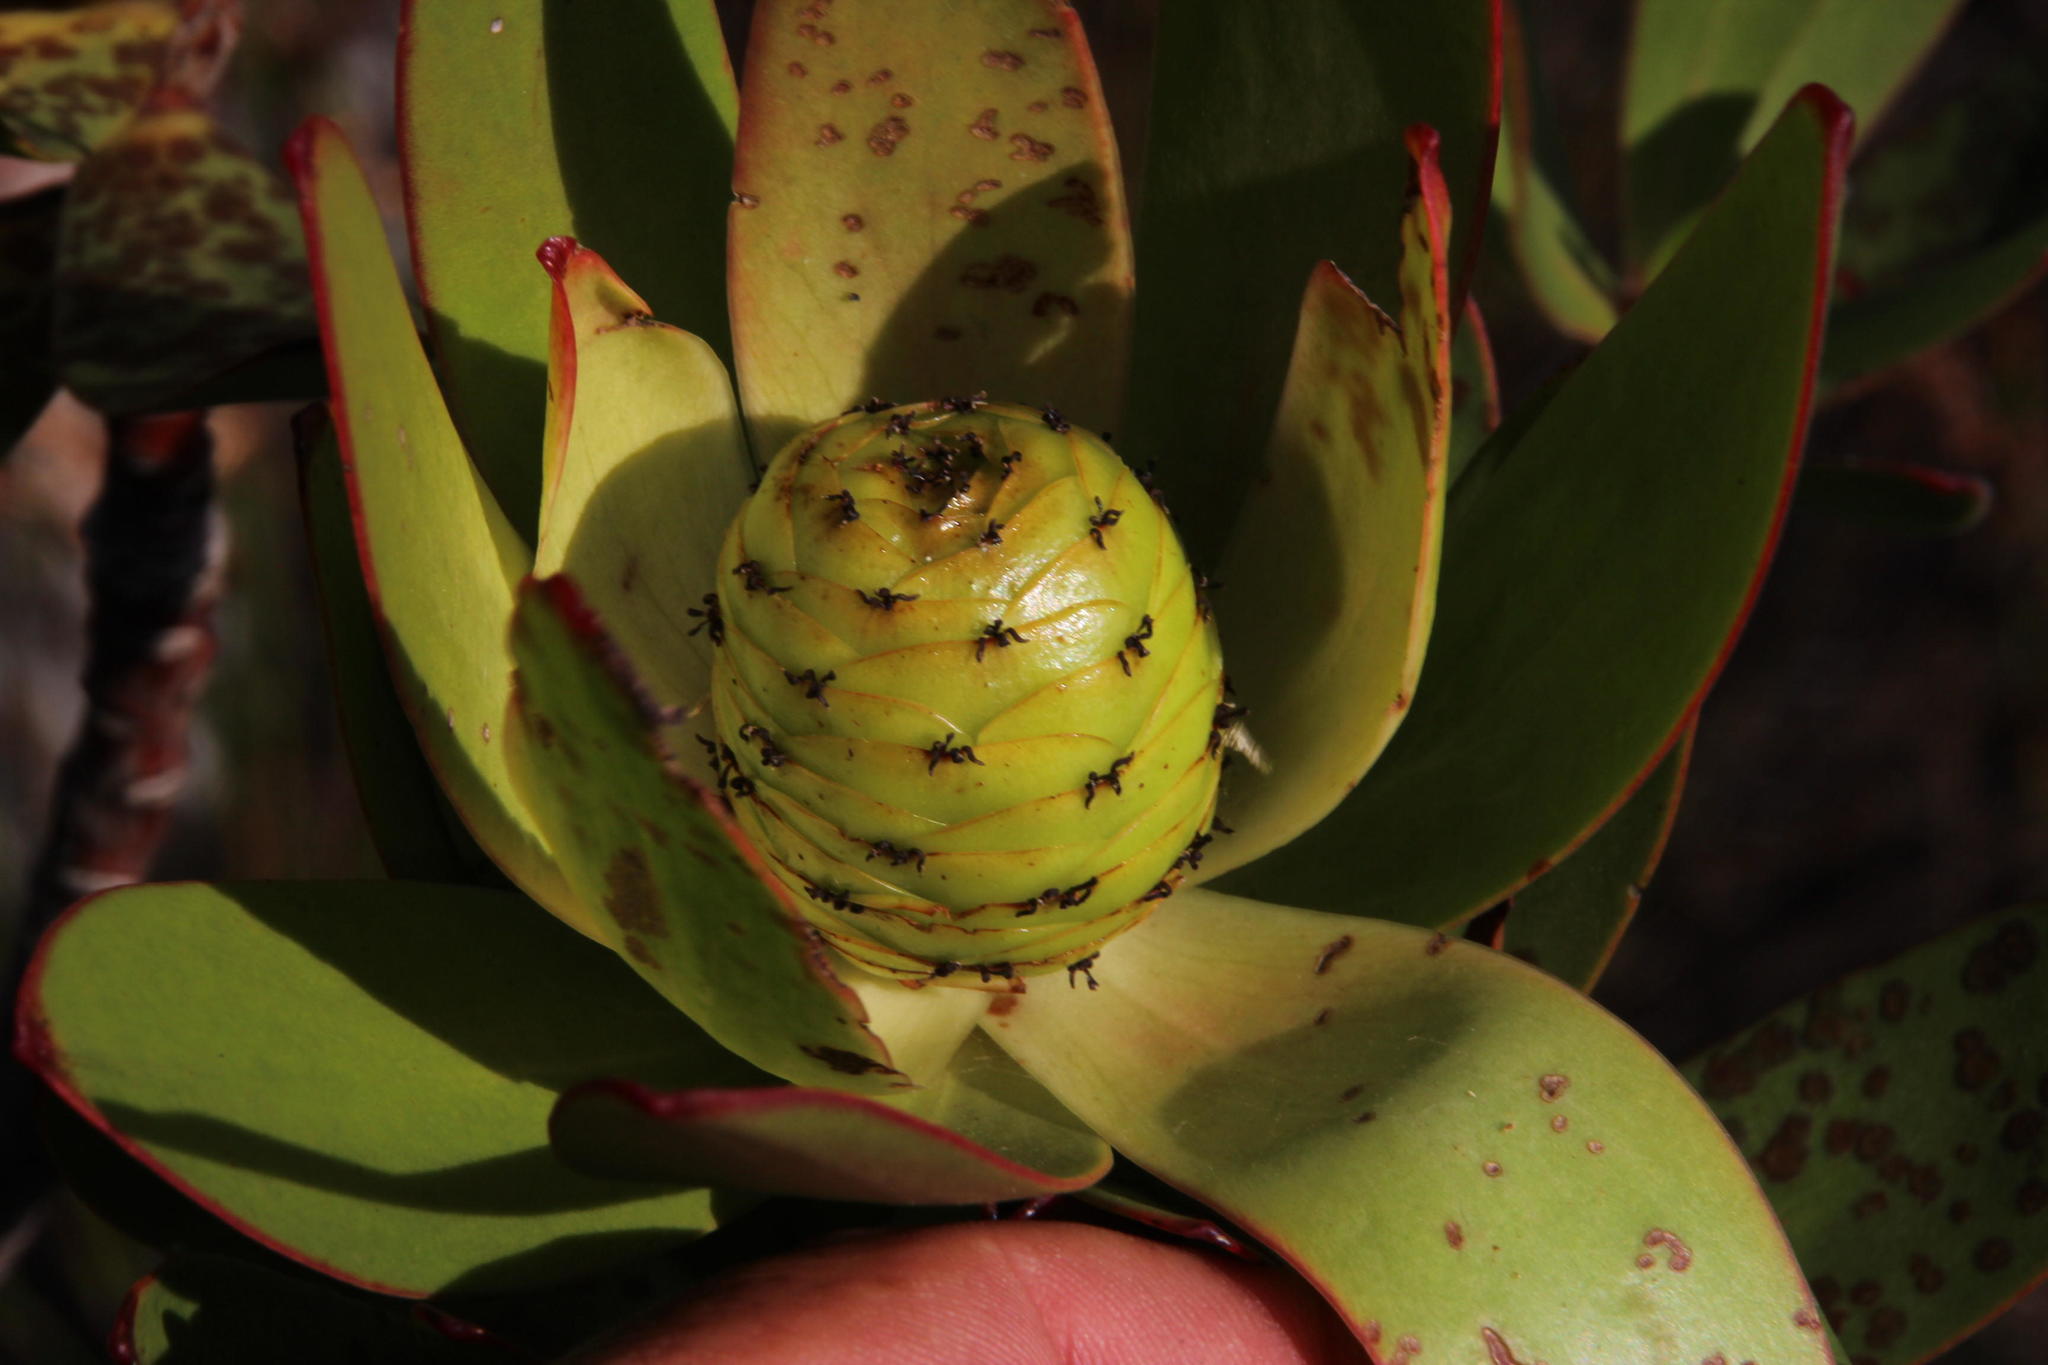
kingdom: Plantae
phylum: Tracheophyta
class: Magnoliopsida
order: Proteales
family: Proteaceae
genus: Leucadendron
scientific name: Leucadendron gandogeri
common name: Broad-leaf conebush
